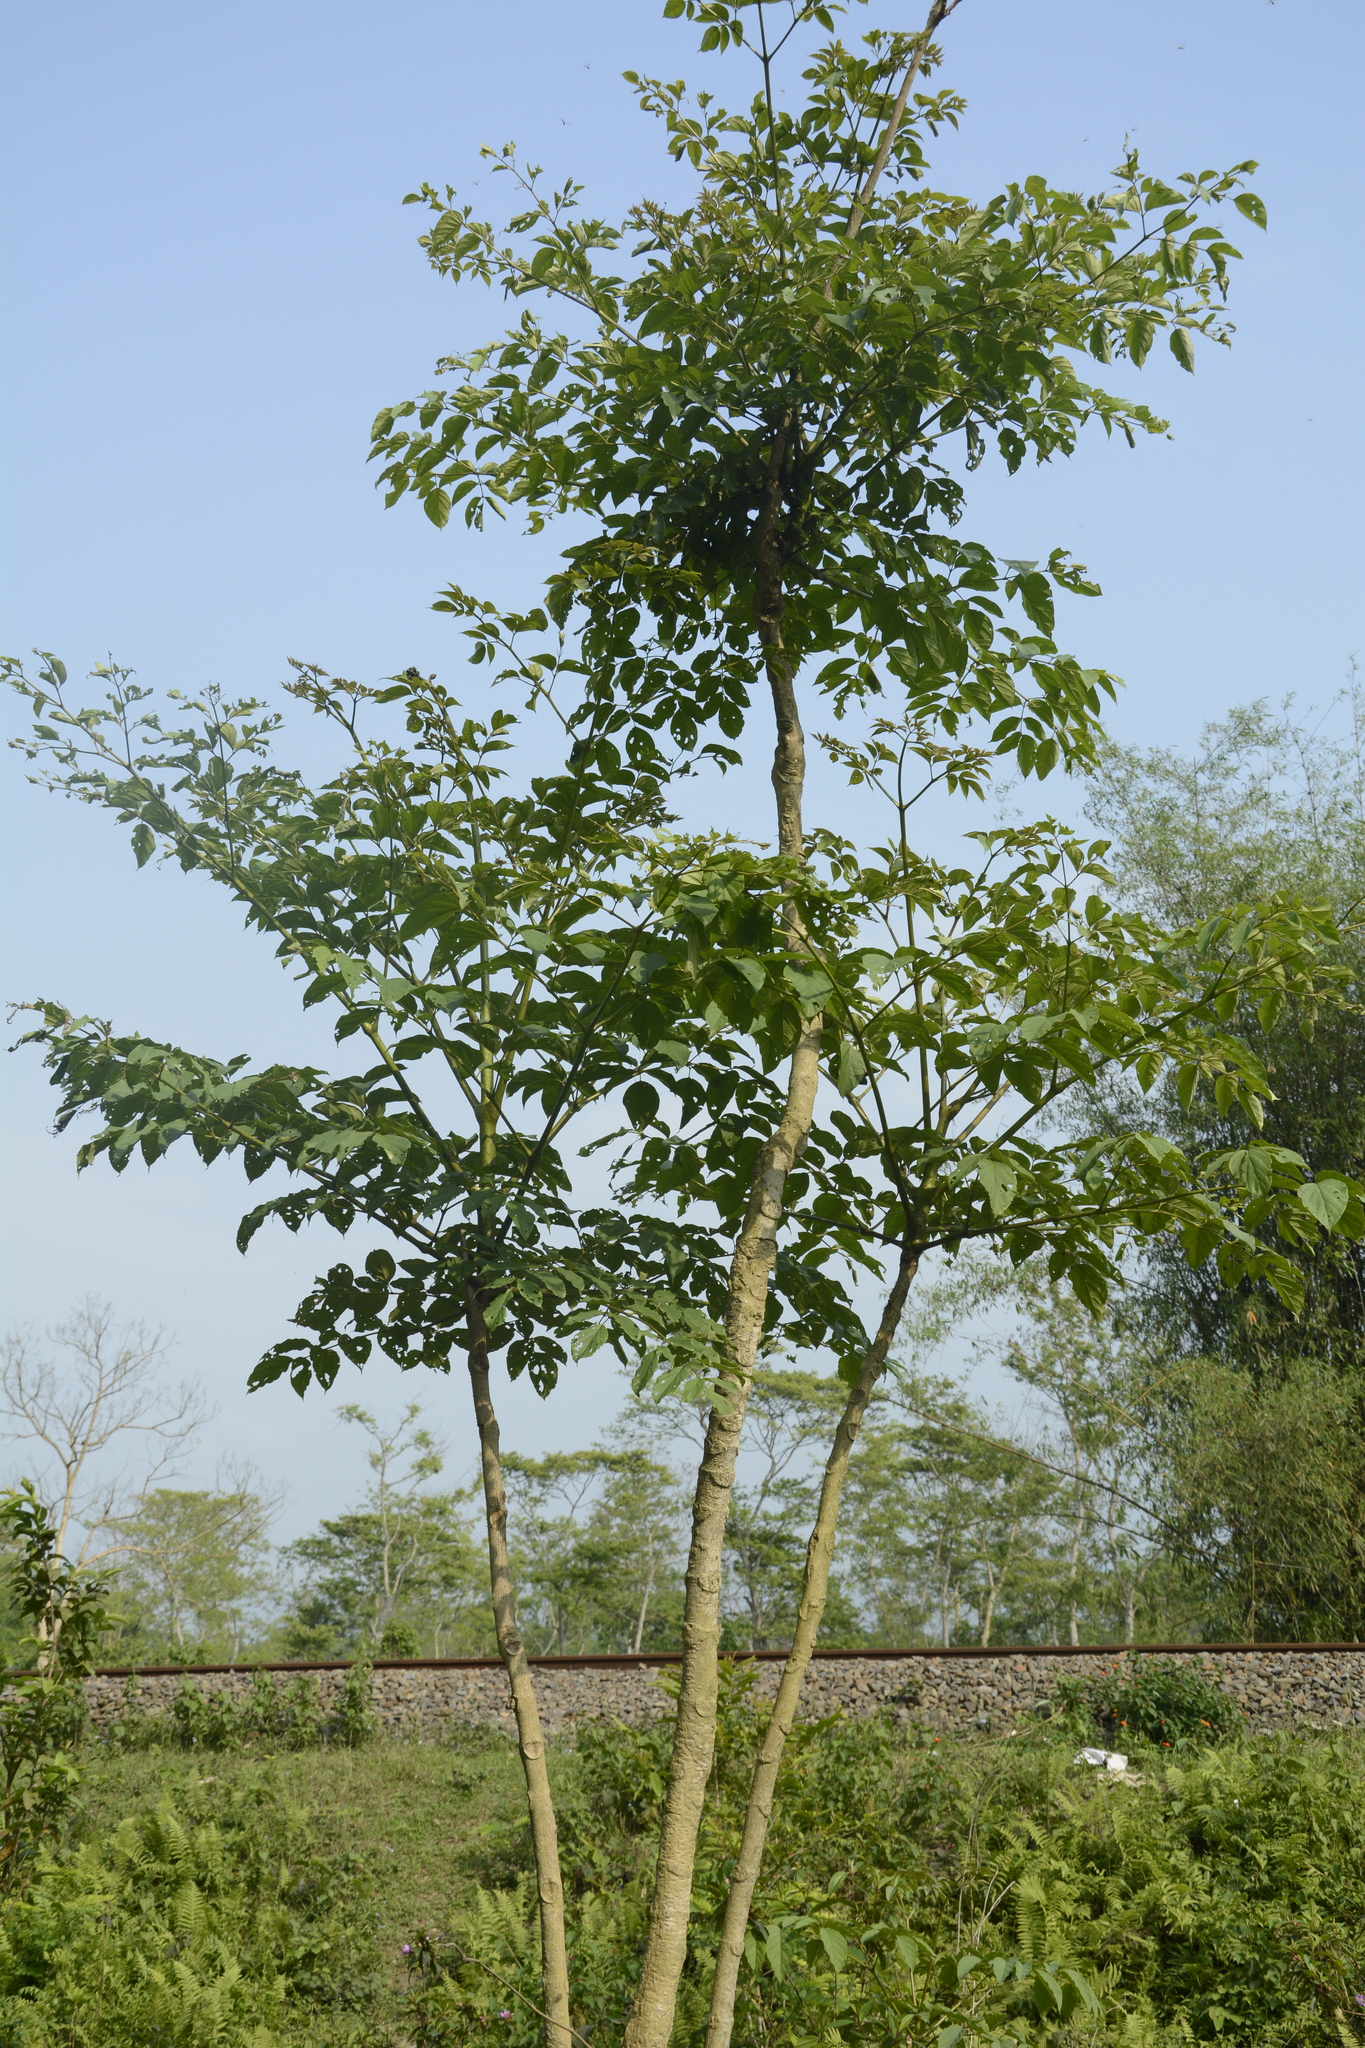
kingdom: Plantae
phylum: Tracheophyta
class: Magnoliopsida
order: Lamiales
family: Bignoniaceae
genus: Oroxylum
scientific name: Oroxylum indicum
